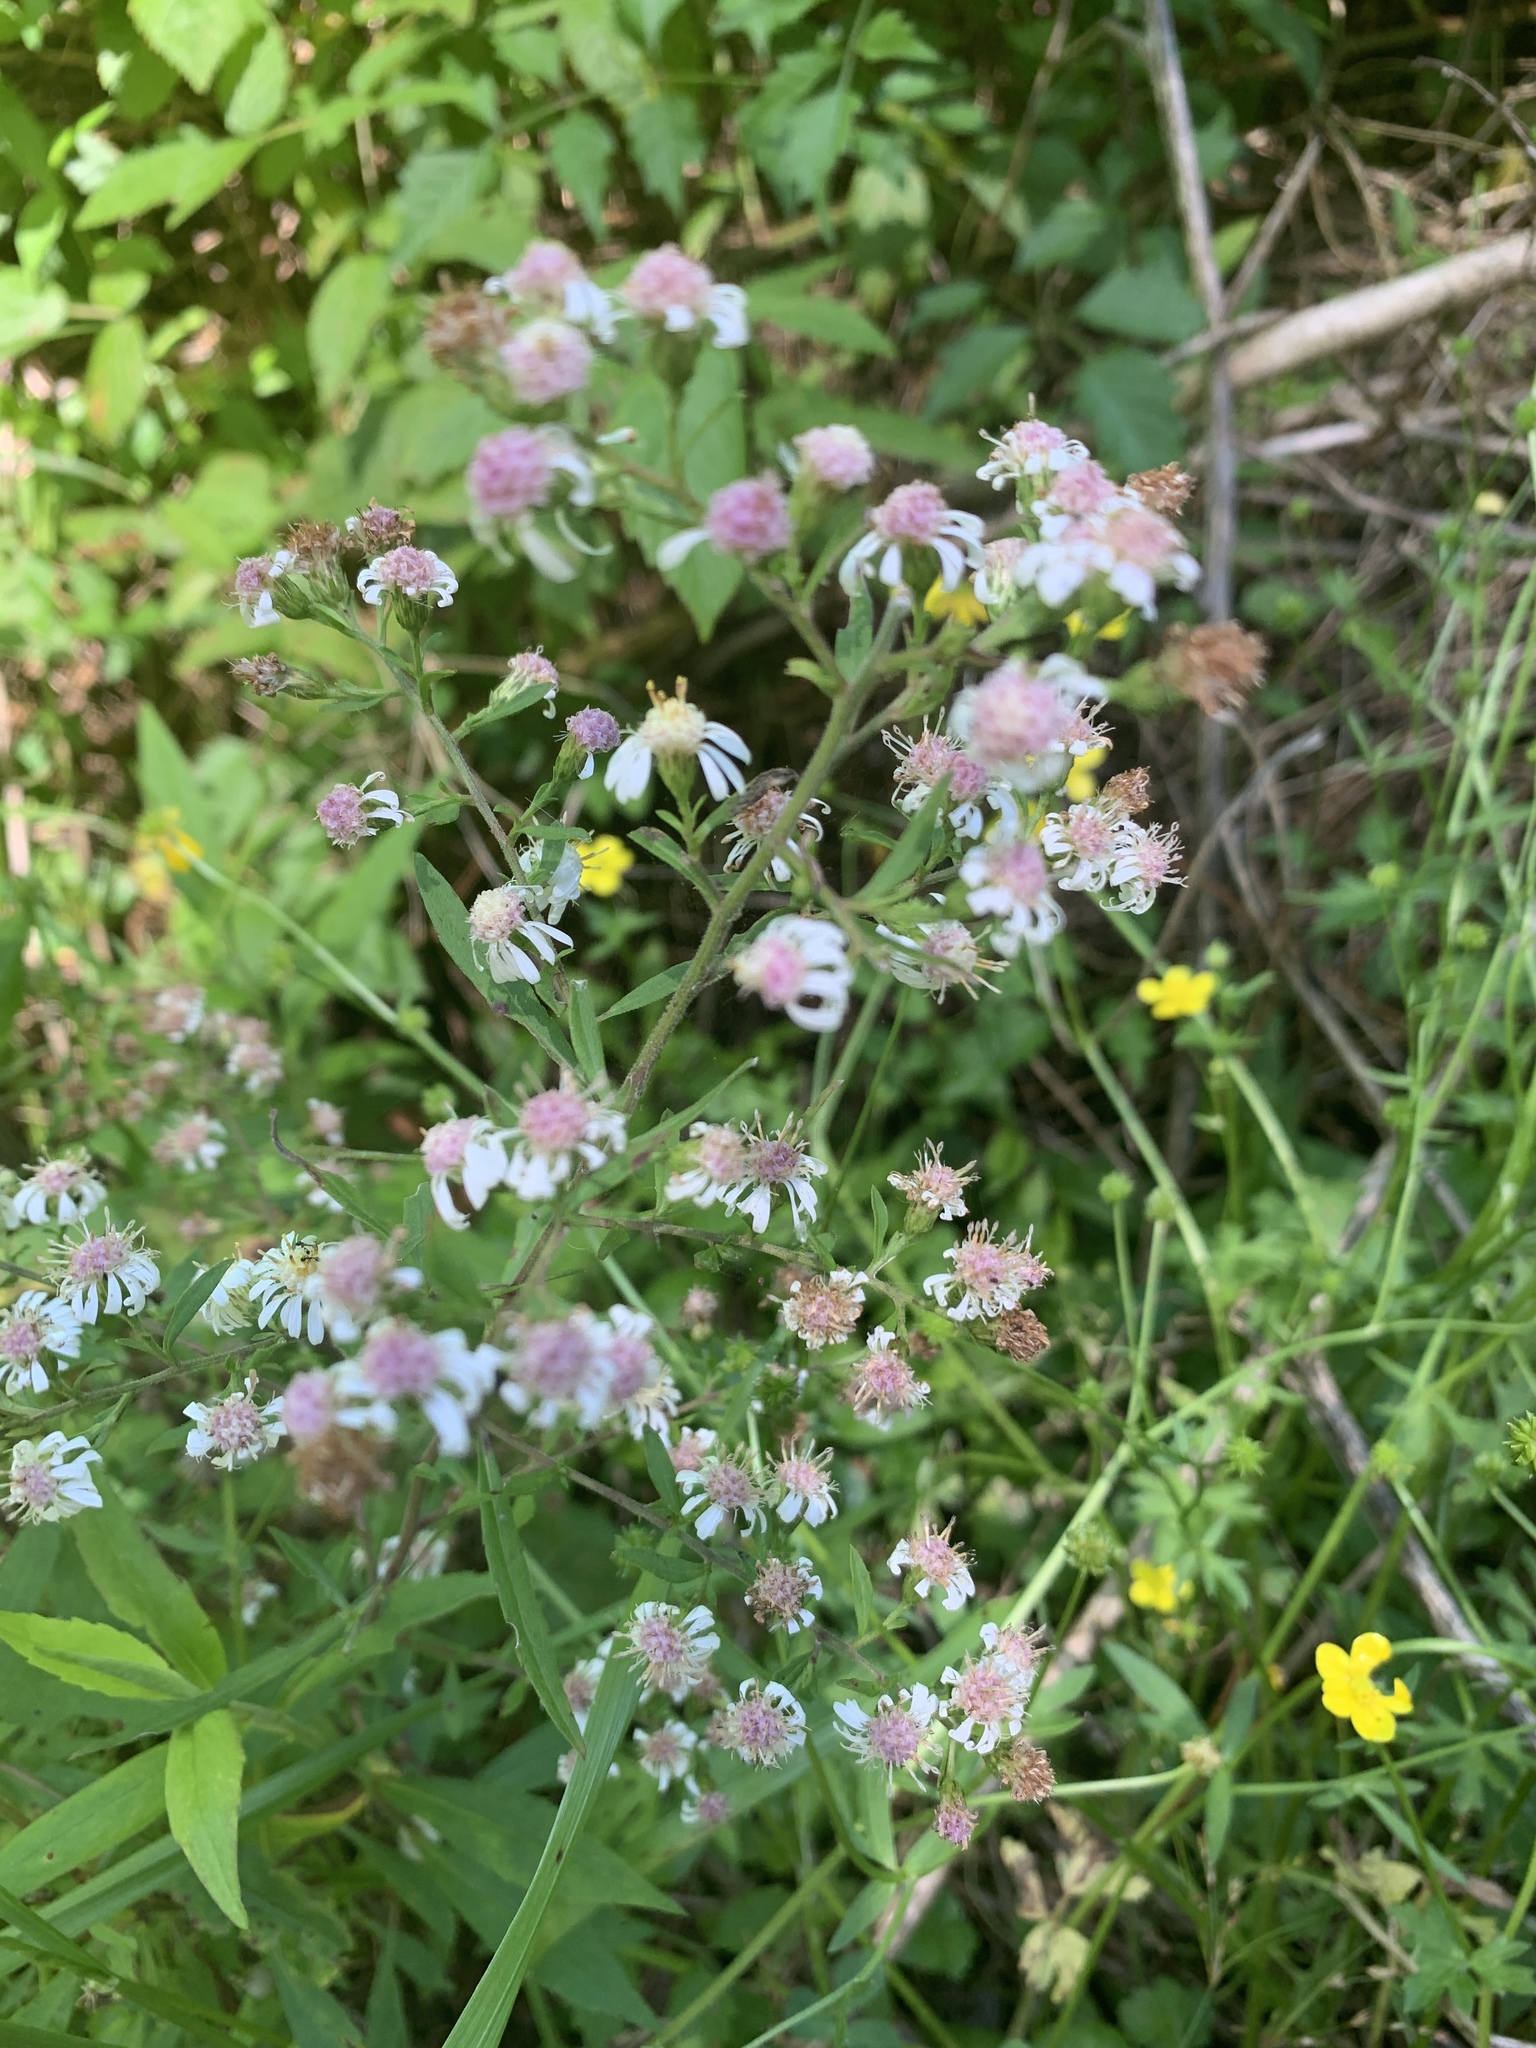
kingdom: Plantae
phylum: Tracheophyta
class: Magnoliopsida
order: Asterales
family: Asteraceae
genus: Symphyotrichum
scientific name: Symphyotrichum lateriflorum
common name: Calico aster
